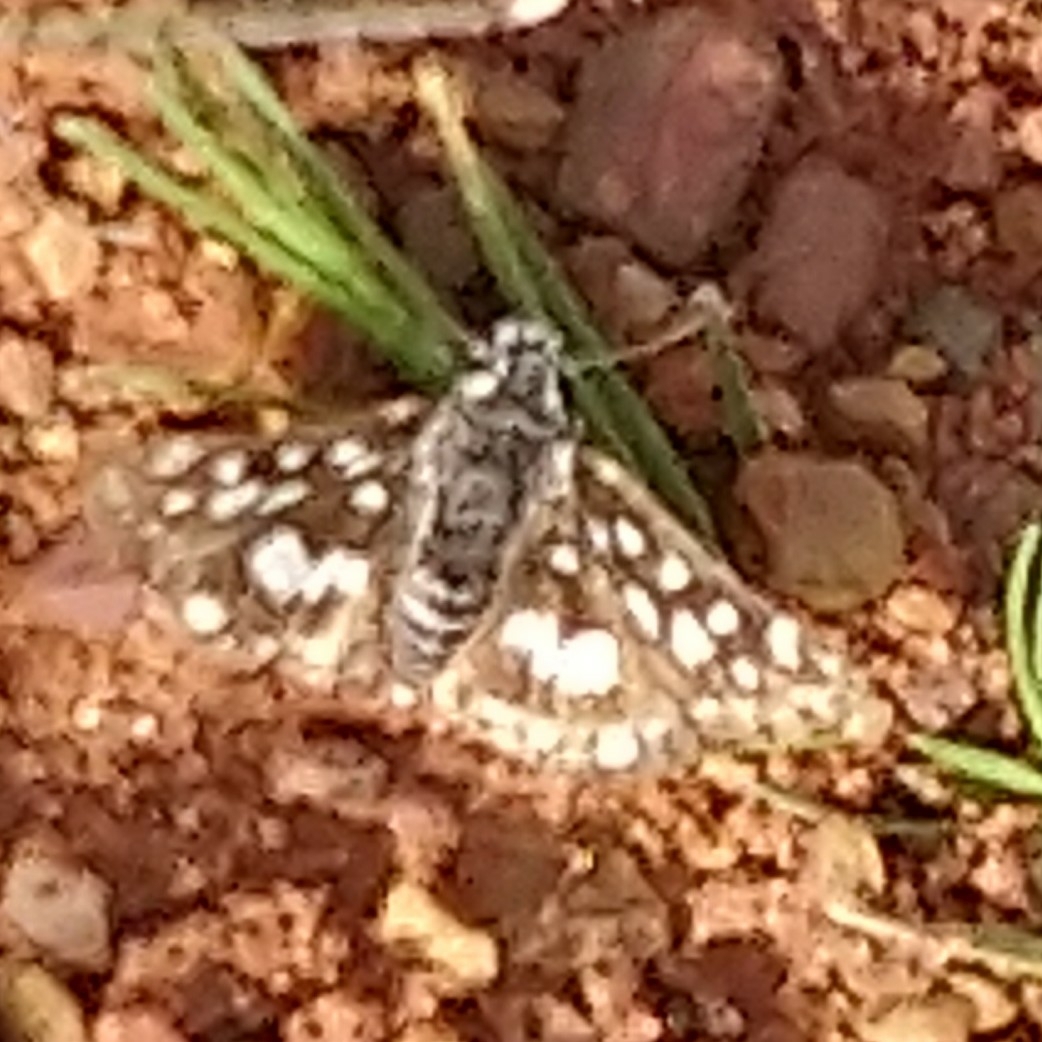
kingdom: Animalia
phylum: Arthropoda
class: Insecta
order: Lepidoptera
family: Hesperiidae
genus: Spialia
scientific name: Spialia spio
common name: Mountain sandman
